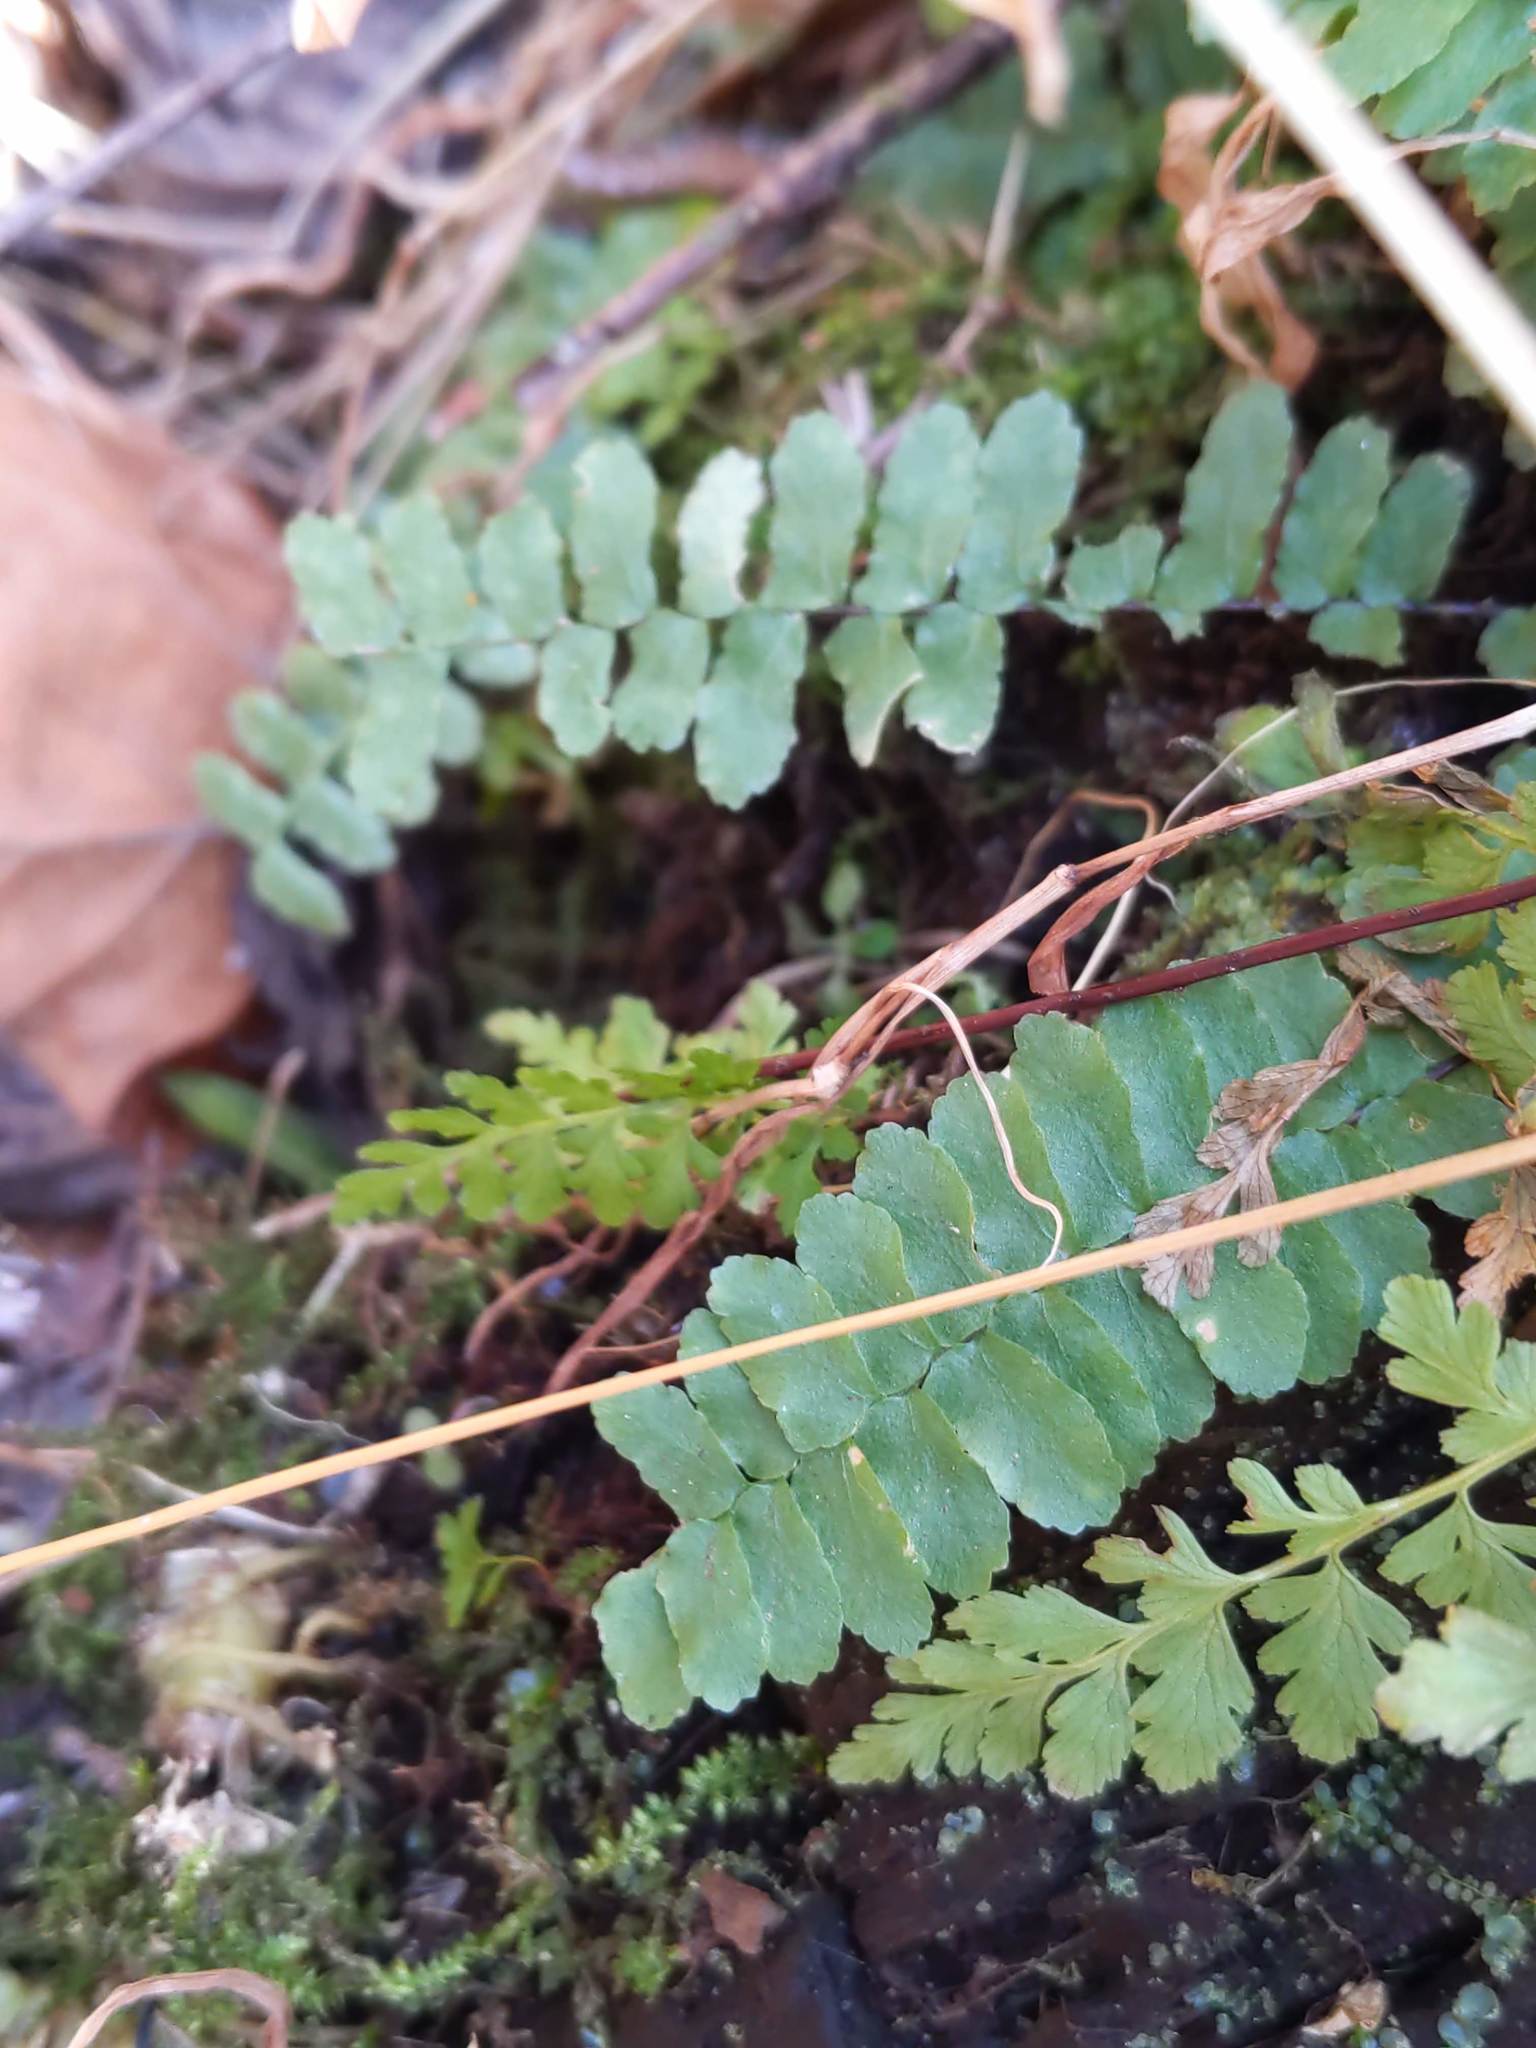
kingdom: Plantae
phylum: Tracheophyta
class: Polypodiopsida
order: Polypodiales
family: Aspleniaceae
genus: Asplenium
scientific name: Asplenium platyneuron
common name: Ebony spleenwort
